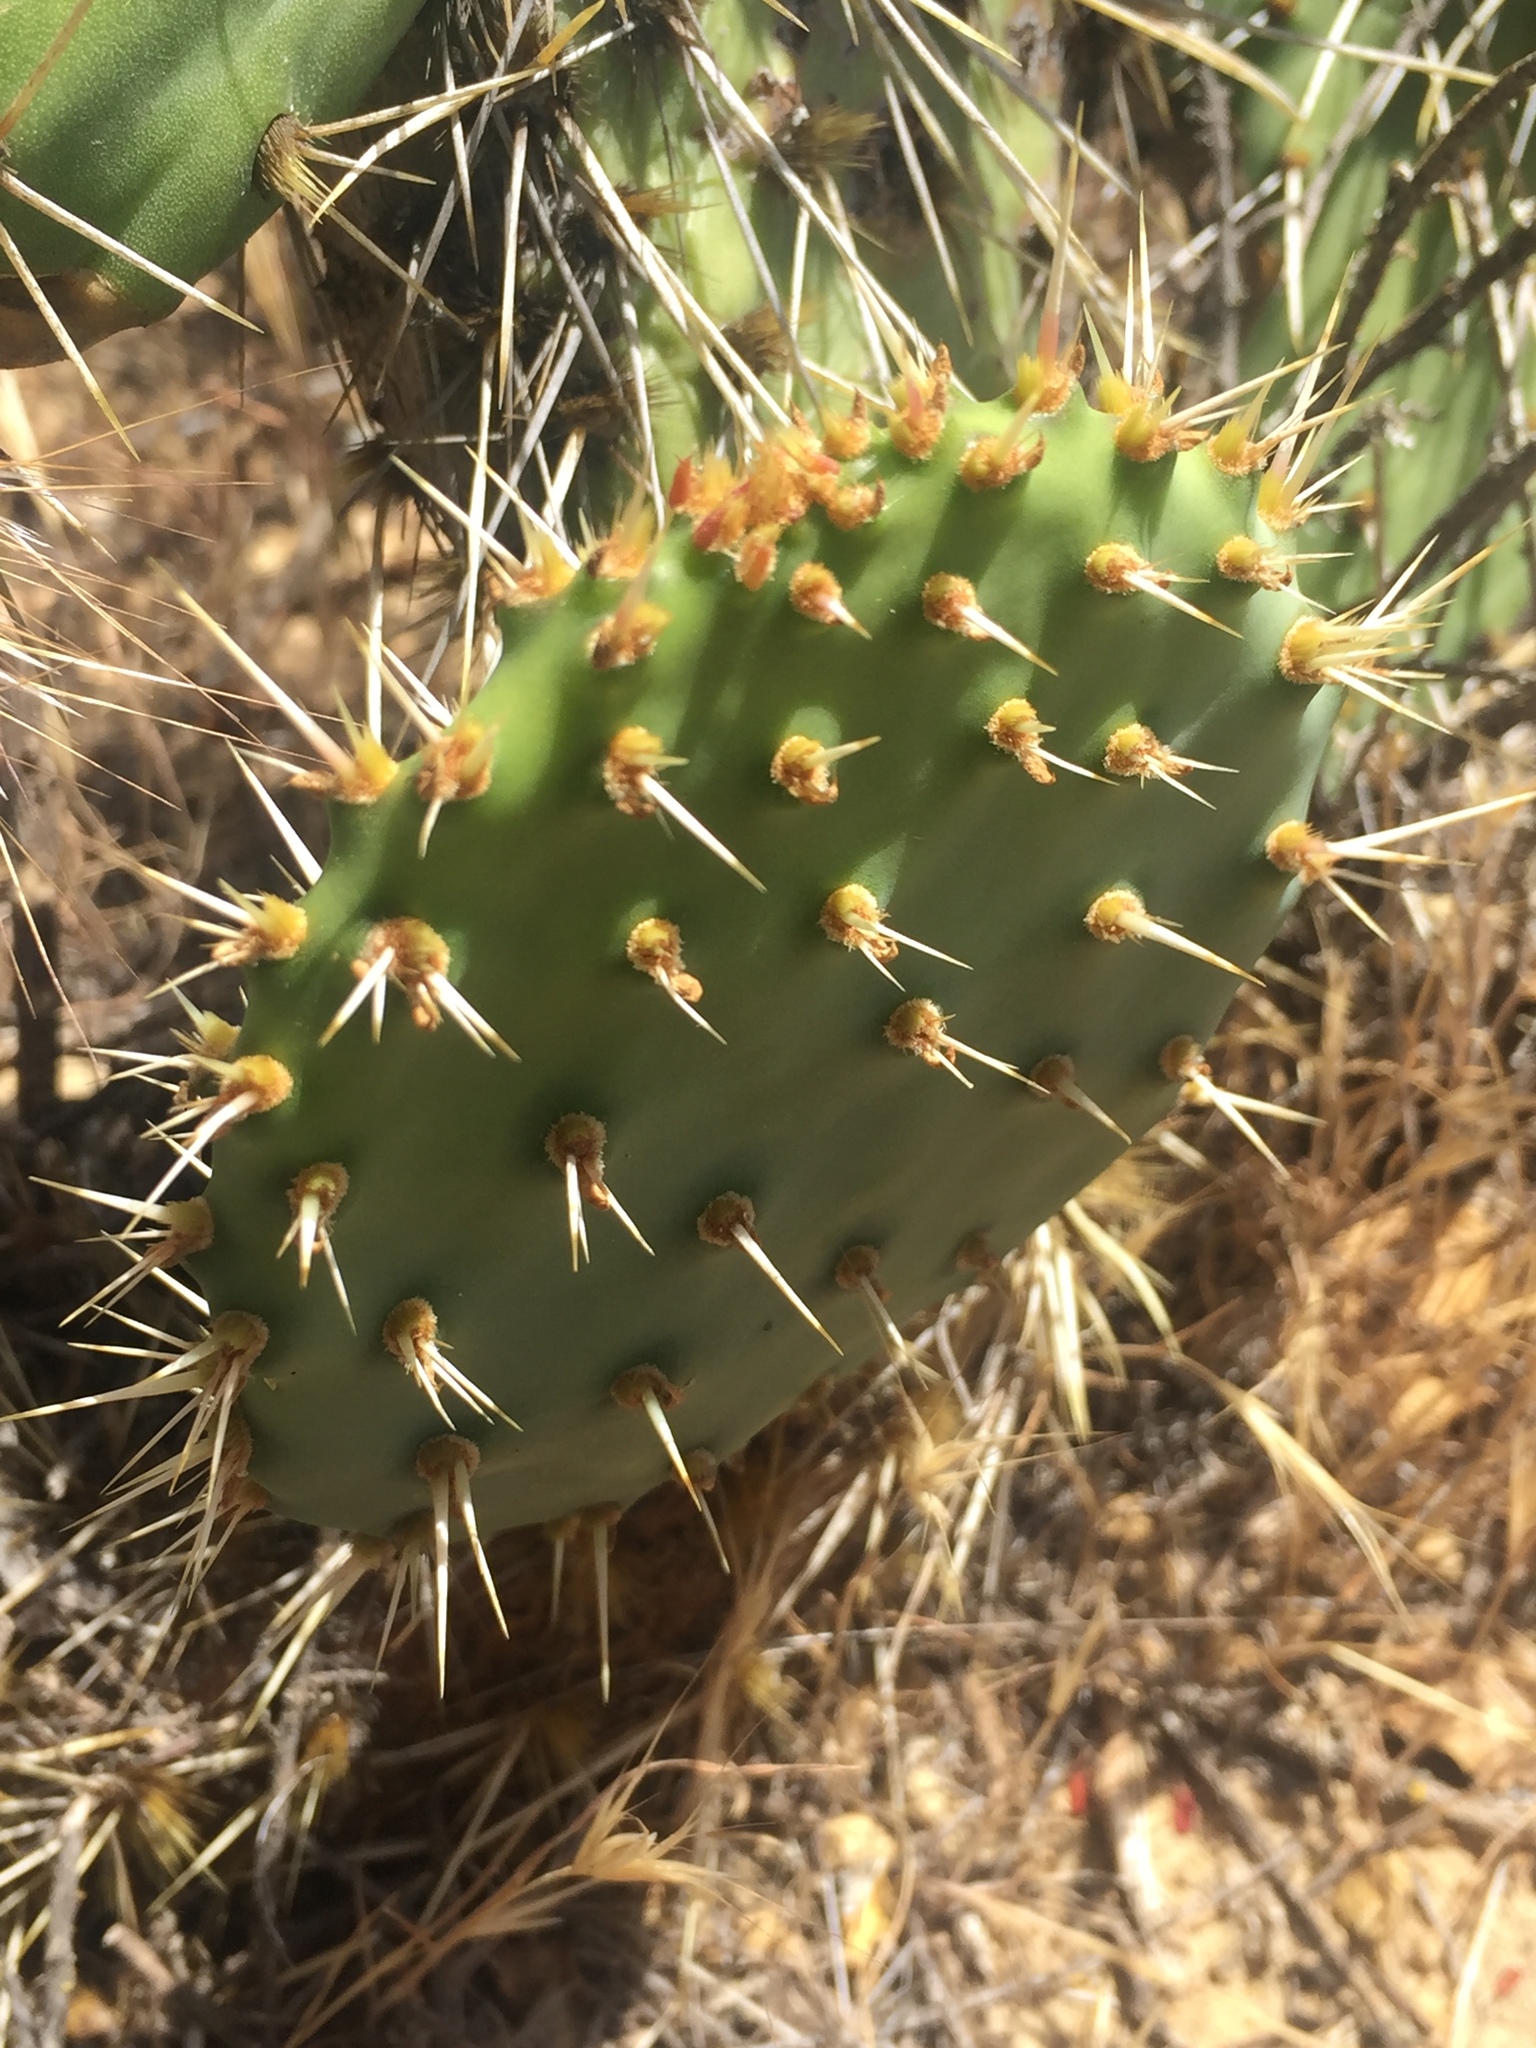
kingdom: Plantae
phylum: Tracheophyta
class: Magnoliopsida
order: Caryophyllales
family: Cactaceae
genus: Opuntia
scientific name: Opuntia littoralis
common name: Coastal prickly-pear
